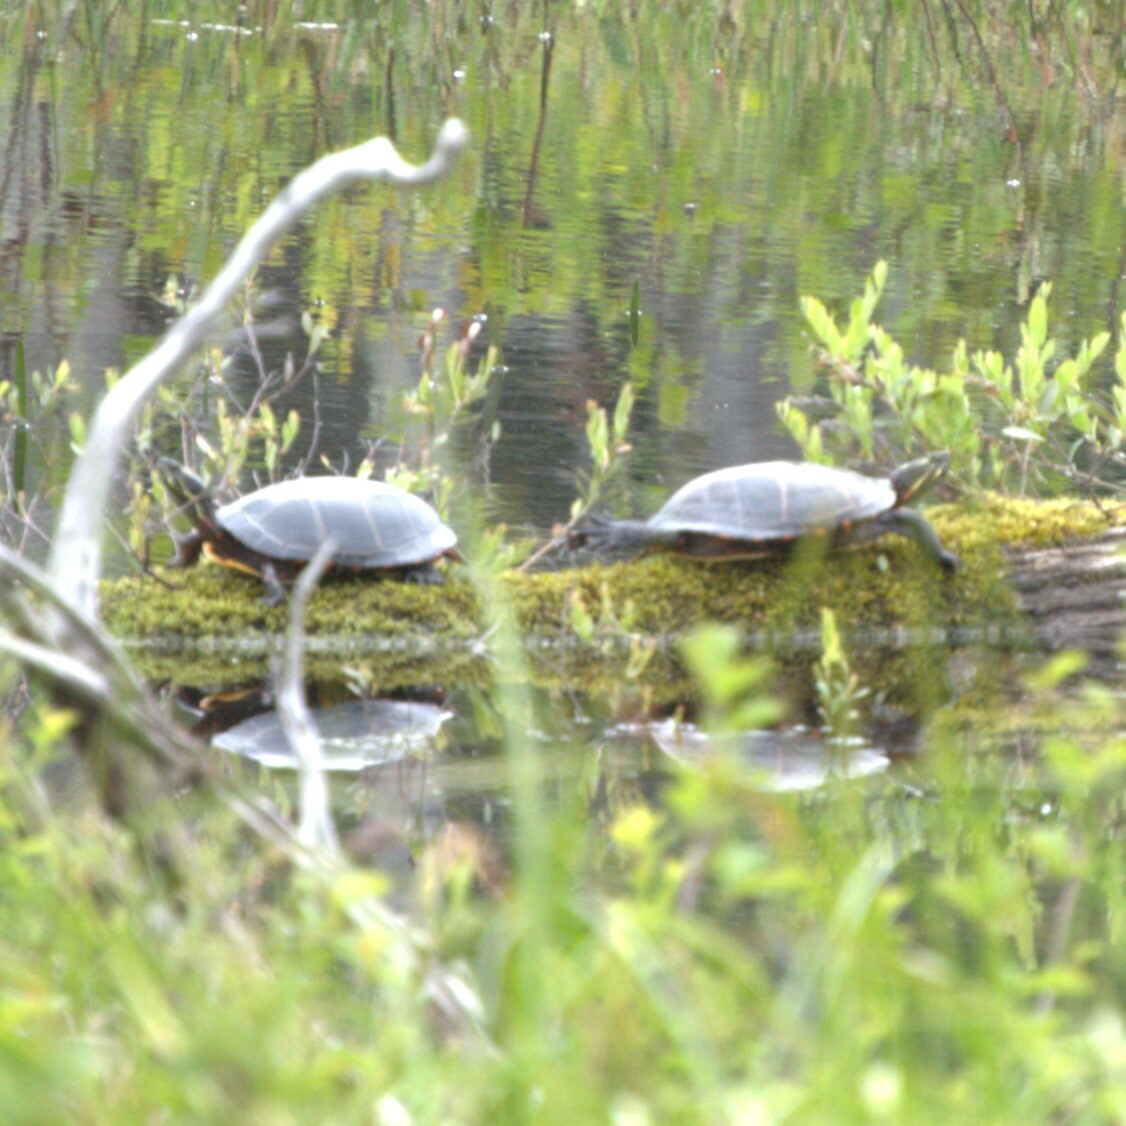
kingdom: Animalia
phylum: Chordata
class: Testudines
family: Emydidae
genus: Chrysemys
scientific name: Chrysemys picta
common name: Painted turtle
